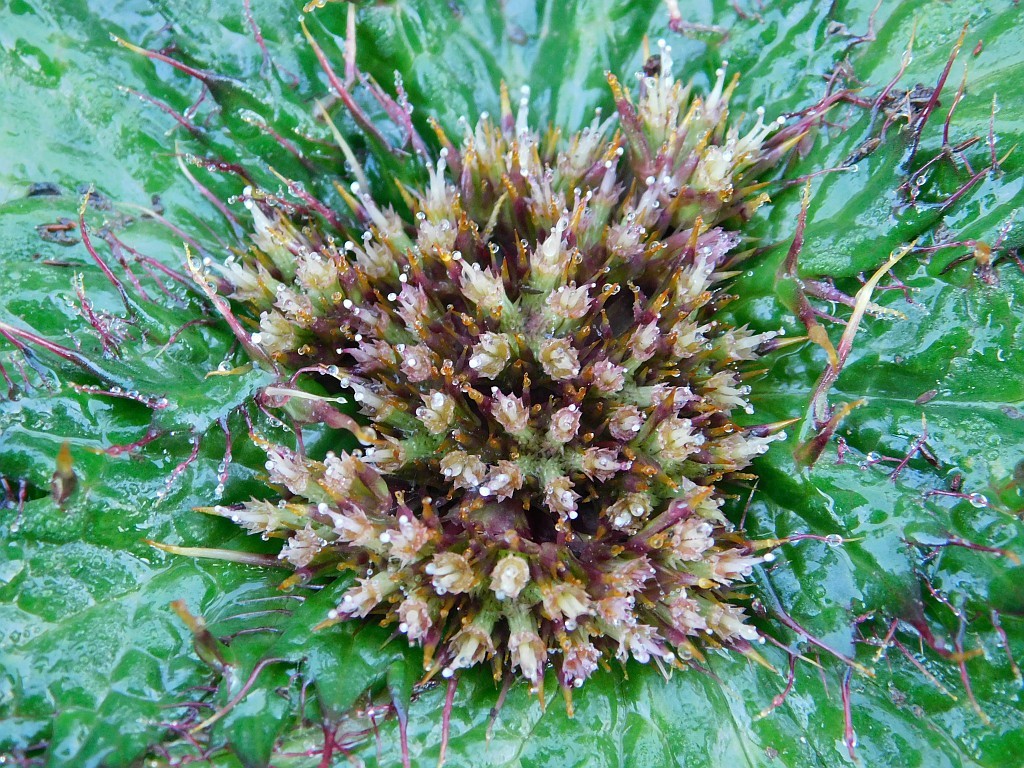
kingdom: Plantae
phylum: Tracheophyta
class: Magnoliopsida
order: Apiales
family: Apiaceae
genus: Arctopus
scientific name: Arctopus echinatus
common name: Platdoring
